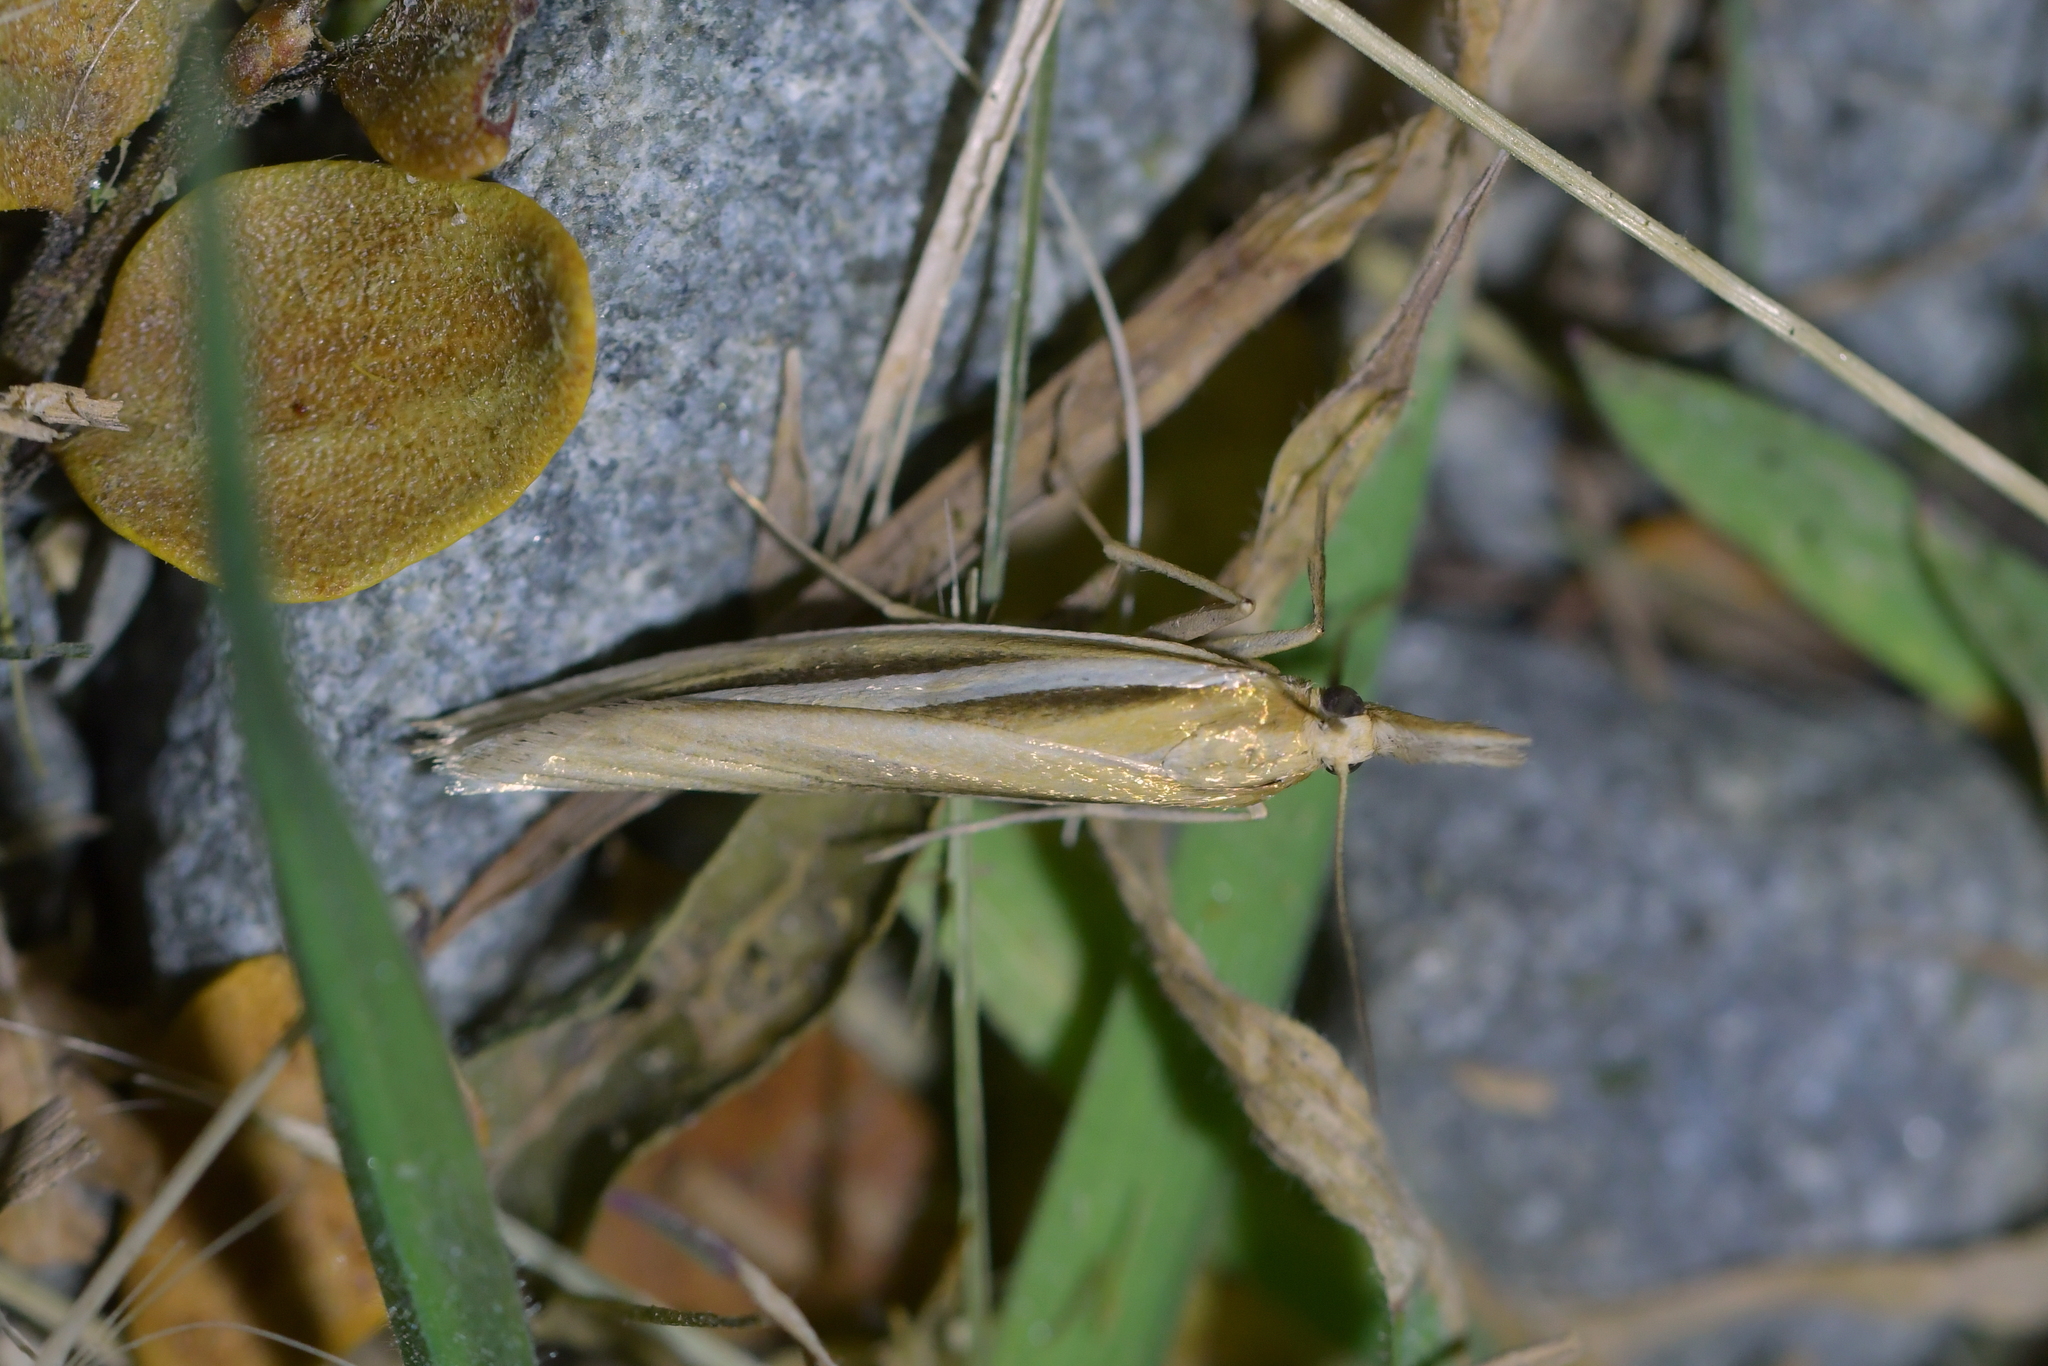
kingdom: Animalia
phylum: Arthropoda
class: Insecta
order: Lepidoptera
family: Crambidae
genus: Orocrambus
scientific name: Orocrambus simplex
